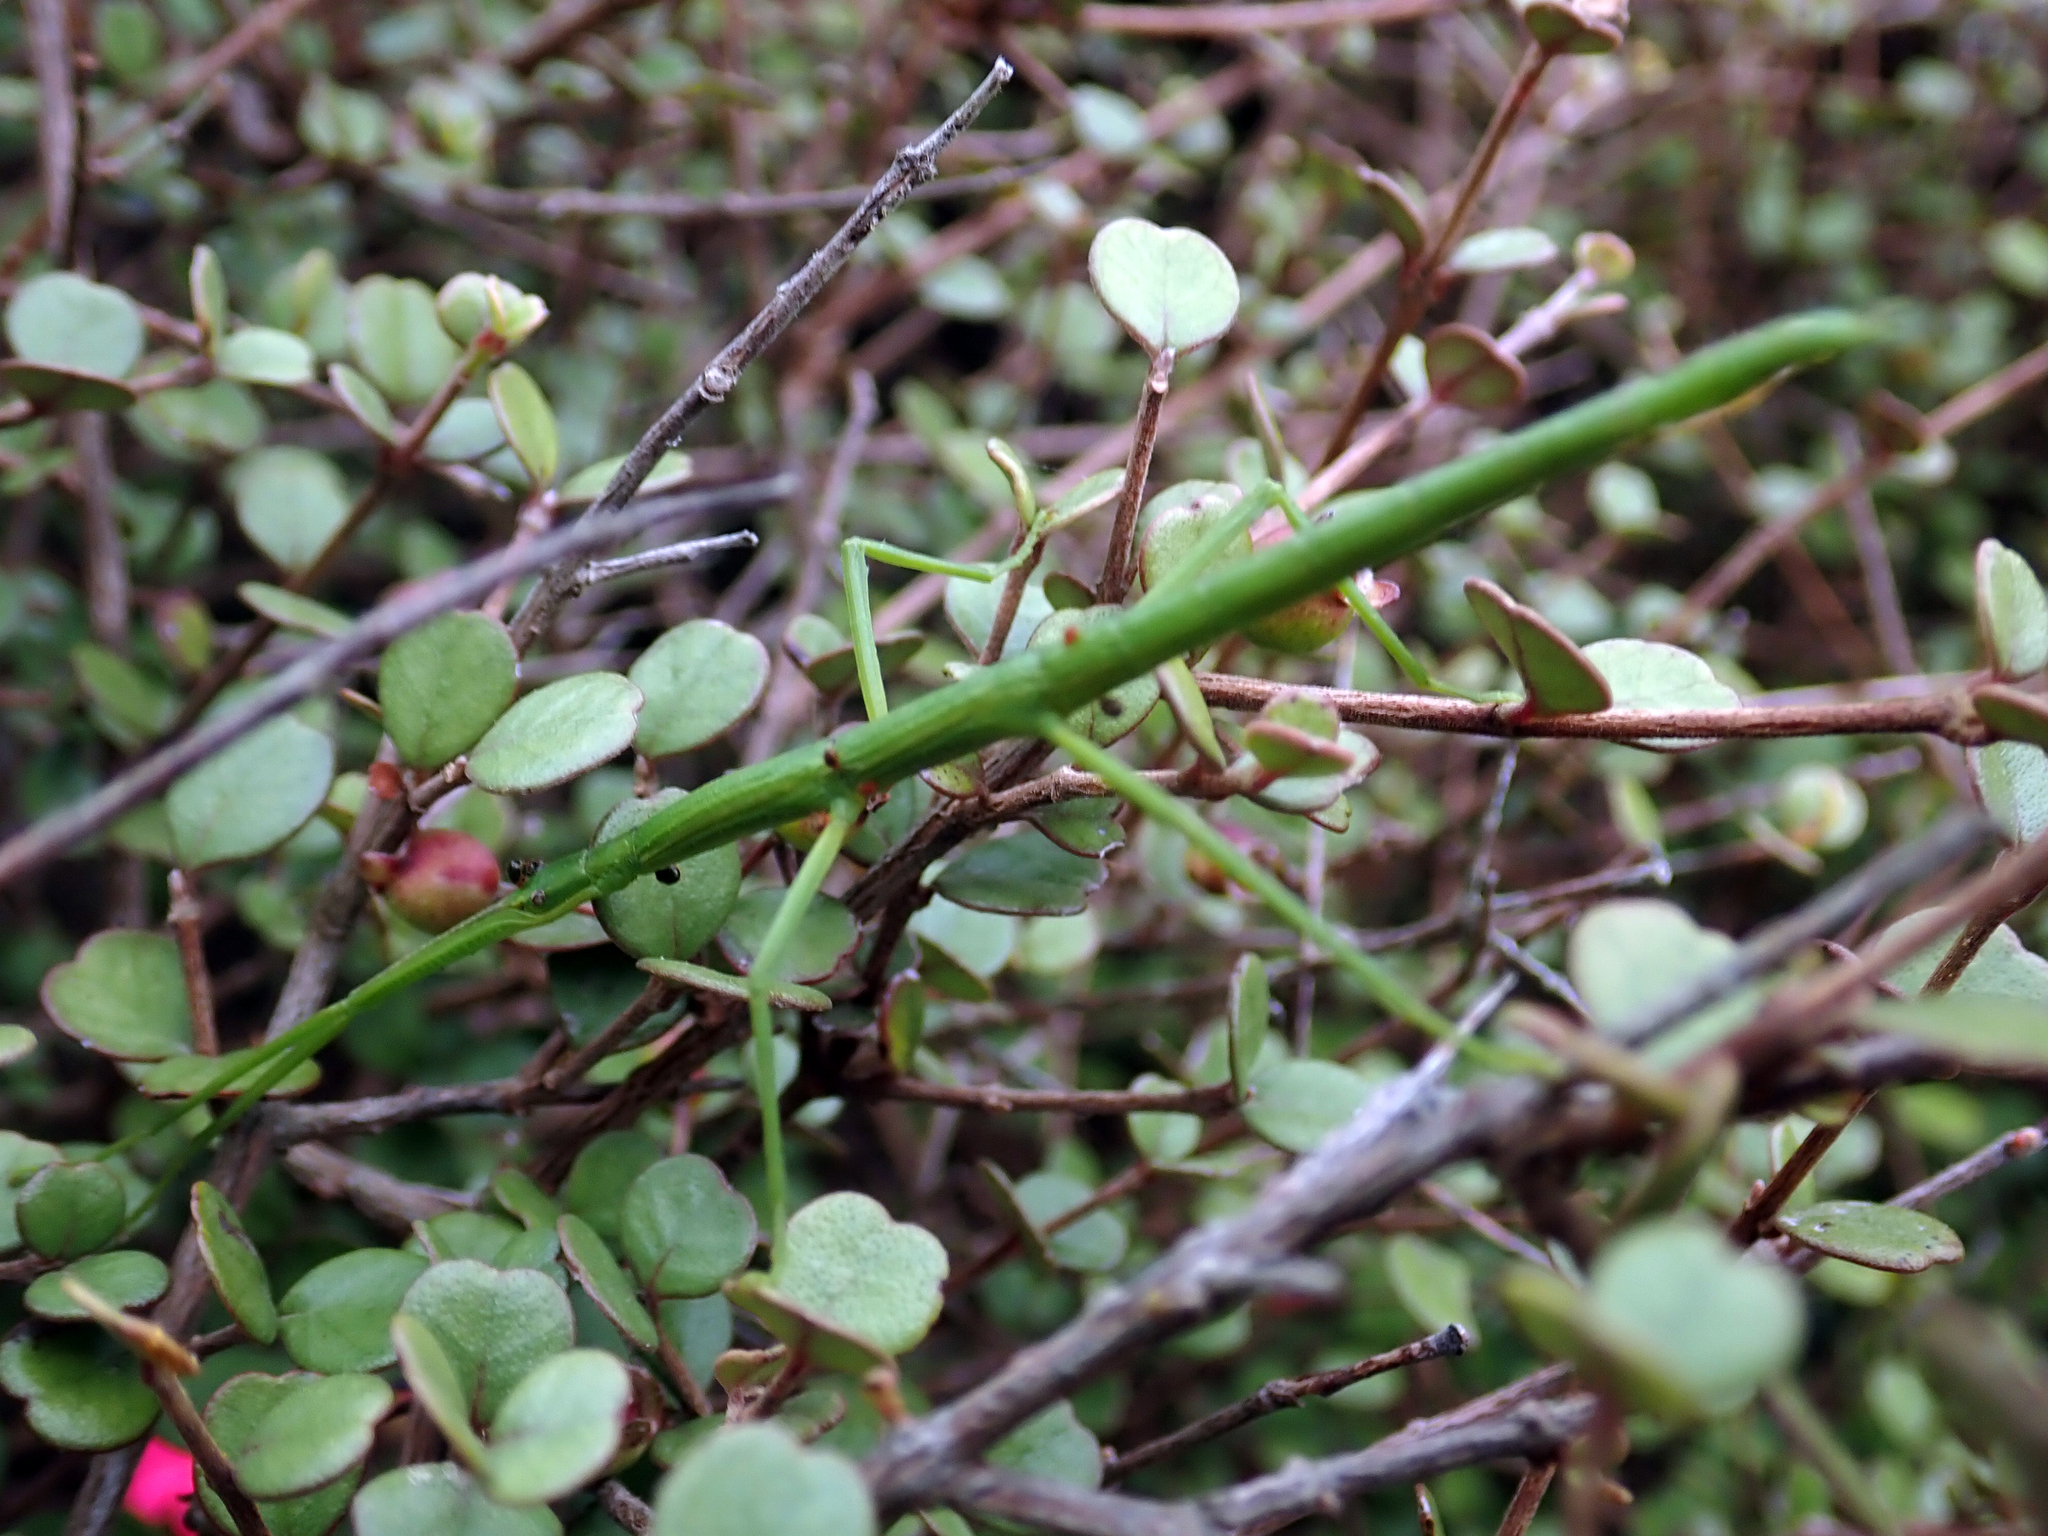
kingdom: Animalia
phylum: Arthropoda
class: Insecta
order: Phasmida
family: Phasmatidae
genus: Clitarchus
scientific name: Clitarchus hookeri
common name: Smooth stick insect
